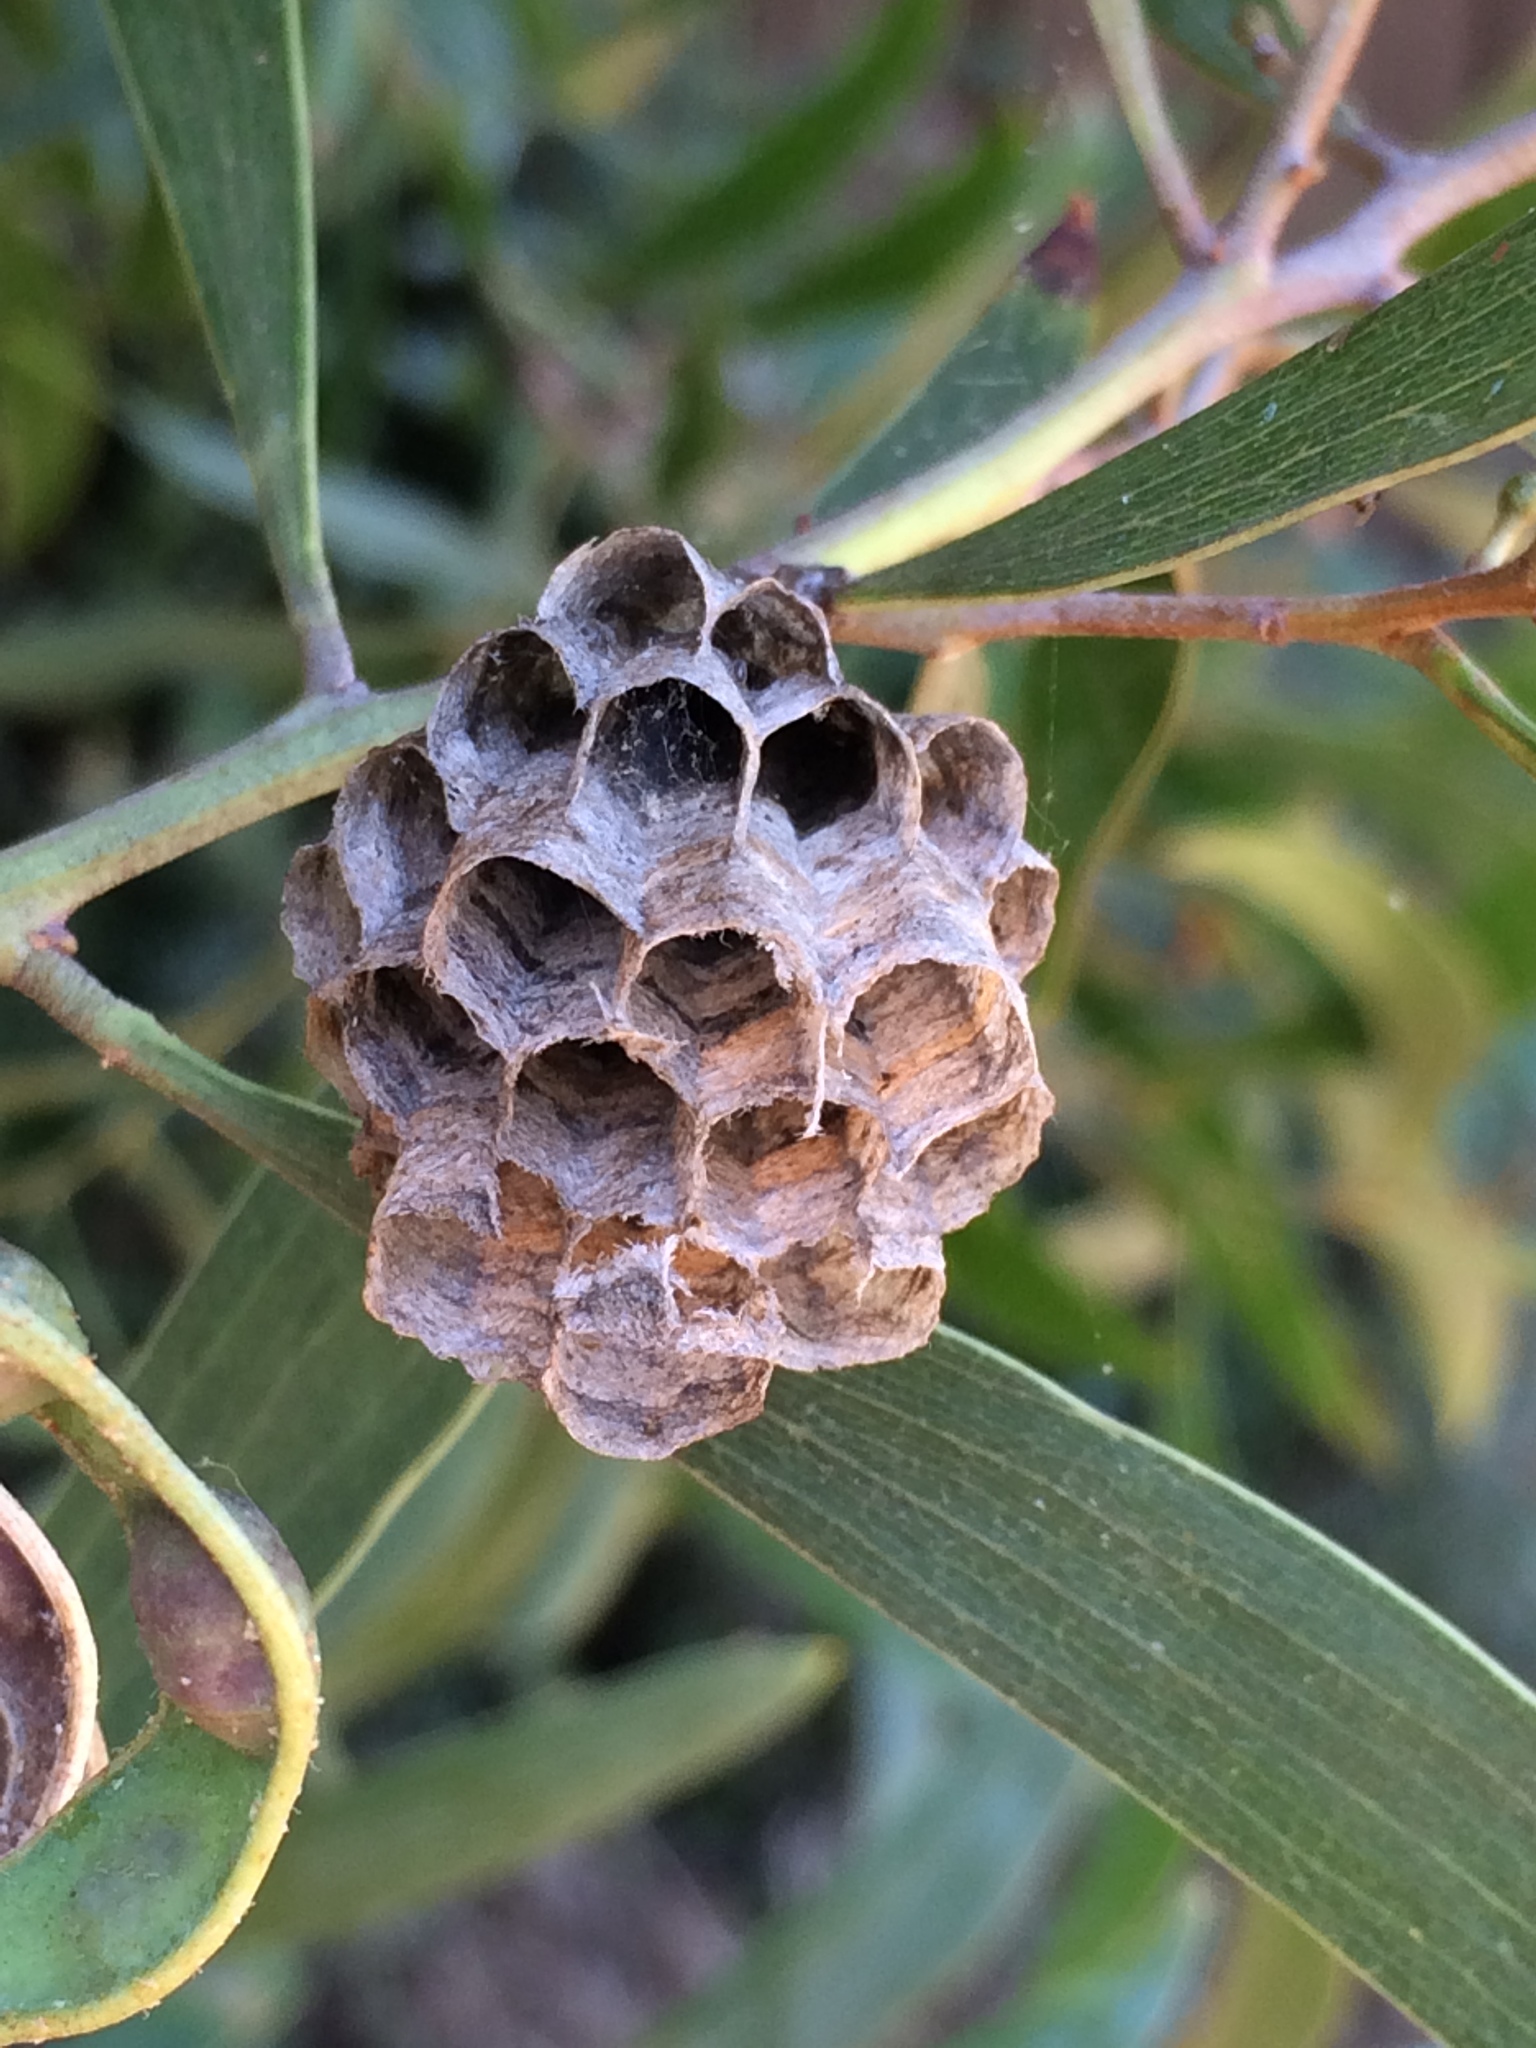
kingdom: Animalia
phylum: Arthropoda
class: Insecta
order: Hymenoptera
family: Vespidae
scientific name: Vespidae
